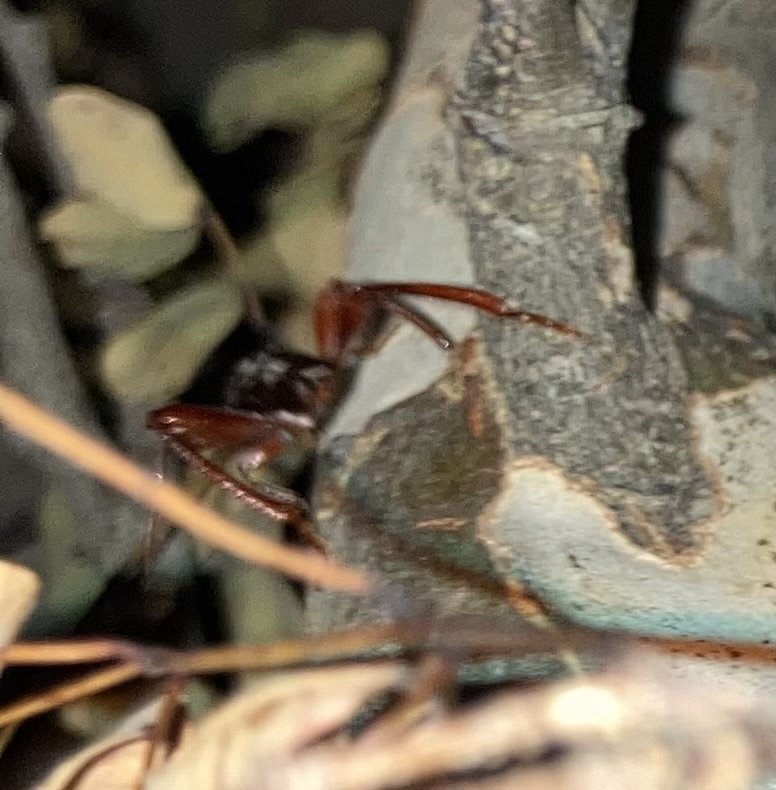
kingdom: Animalia
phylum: Arthropoda
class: Insecta
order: Coleoptera
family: Cerambycidae
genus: Neoclytus
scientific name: Neoclytus senilis
